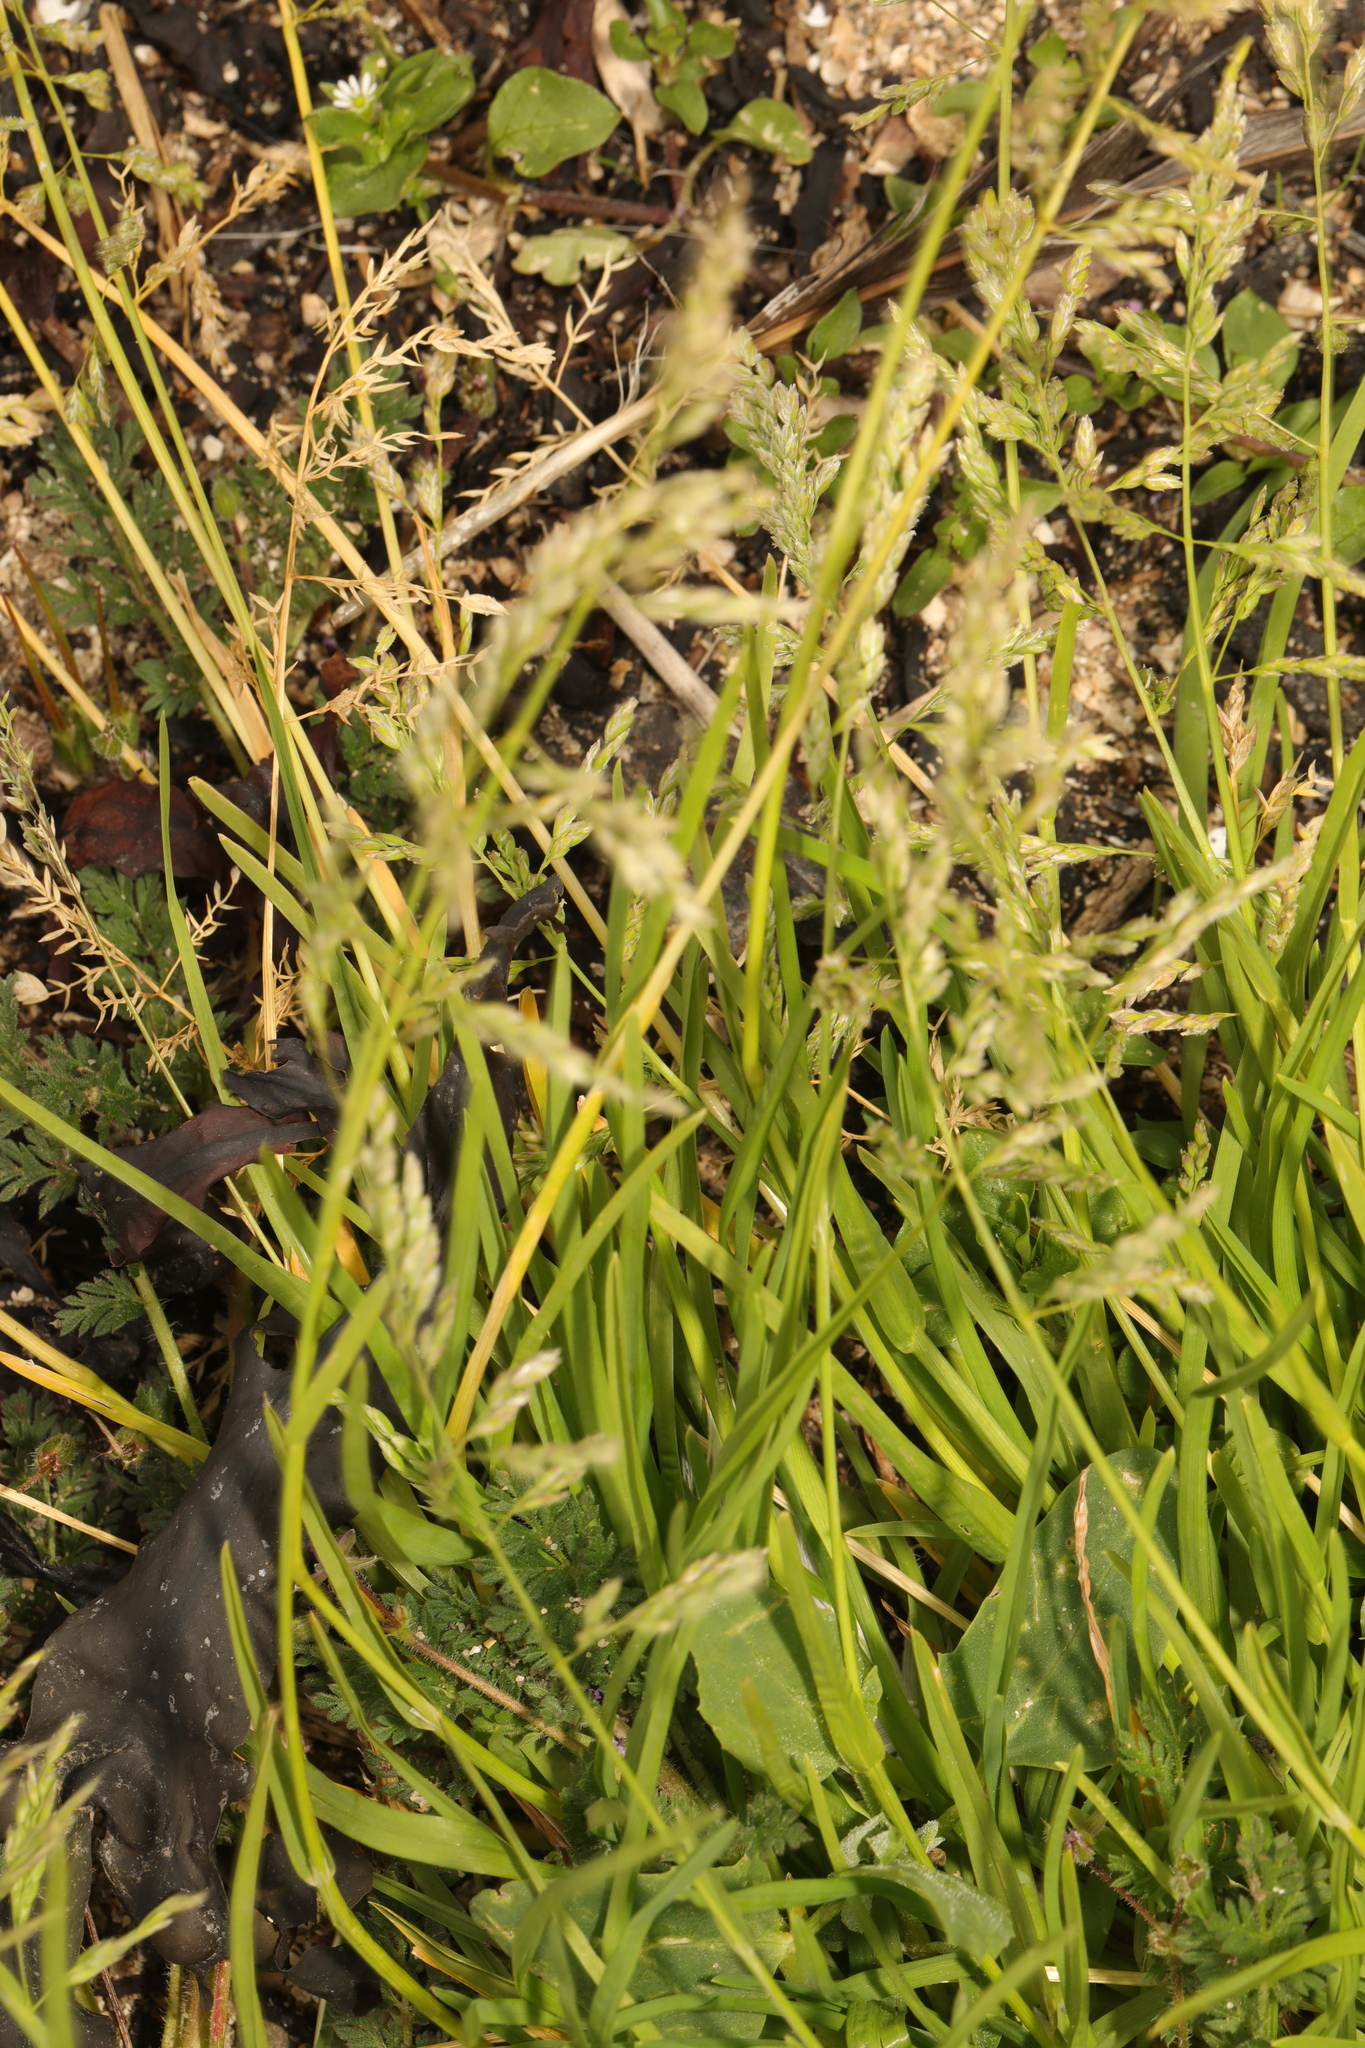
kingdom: Plantae
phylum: Tracheophyta
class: Liliopsida
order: Poales
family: Poaceae
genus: Poa
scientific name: Poa annua
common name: Annual bluegrass
